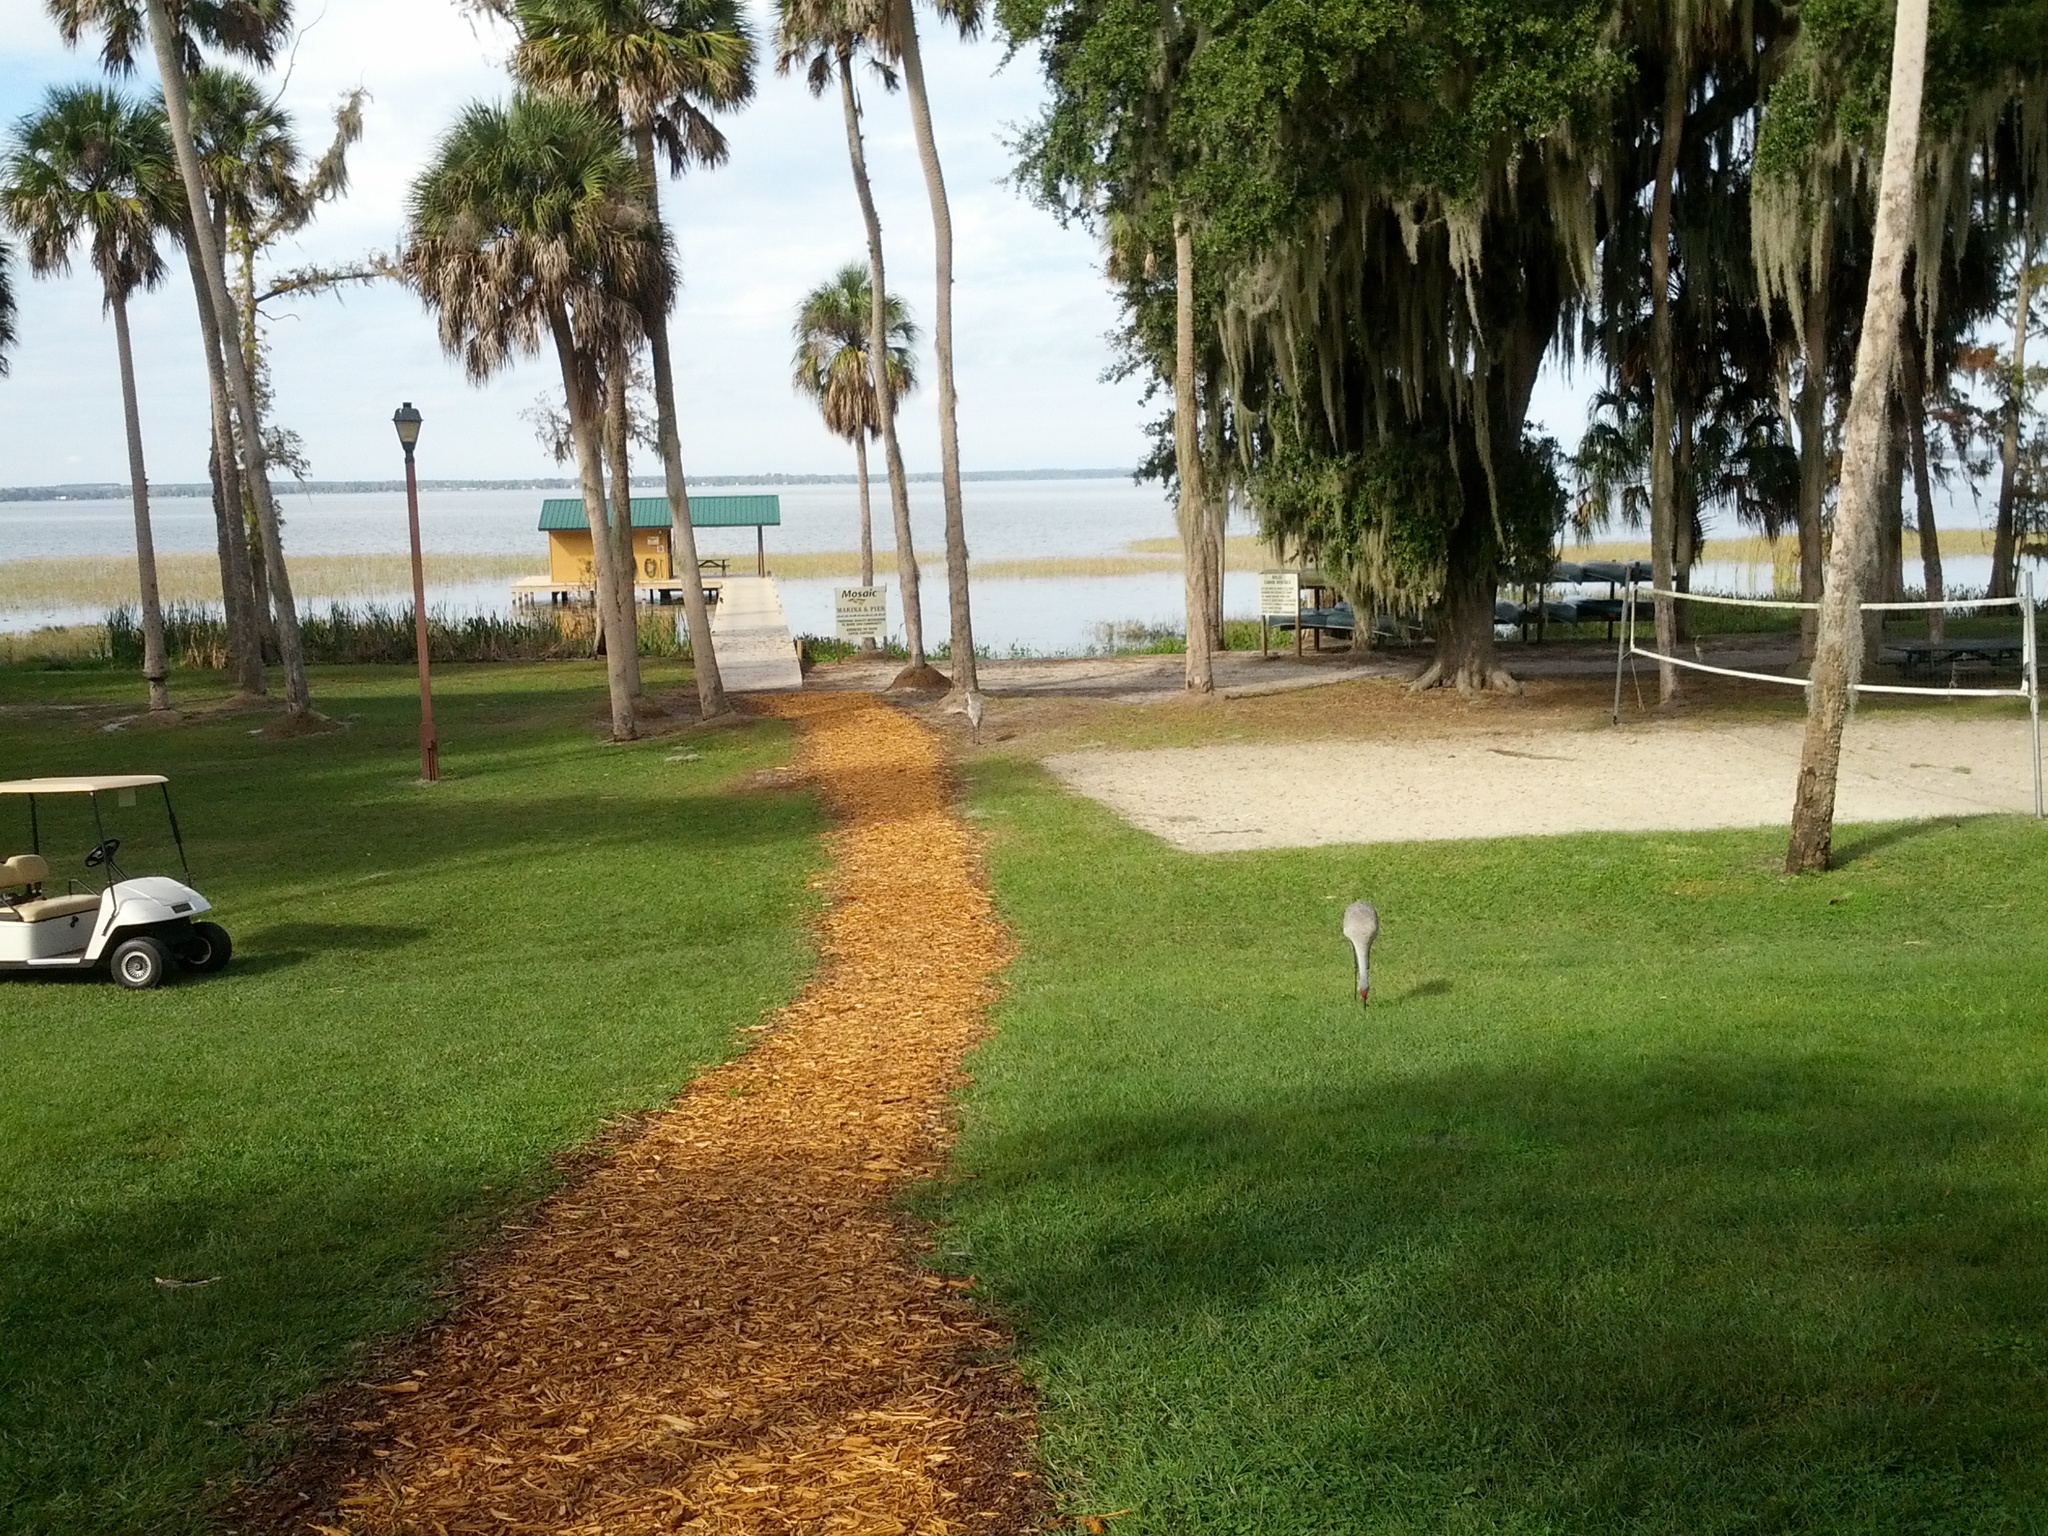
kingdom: Animalia
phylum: Chordata
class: Aves
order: Gruiformes
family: Gruidae
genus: Grus
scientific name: Grus canadensis
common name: Sandhill crane
